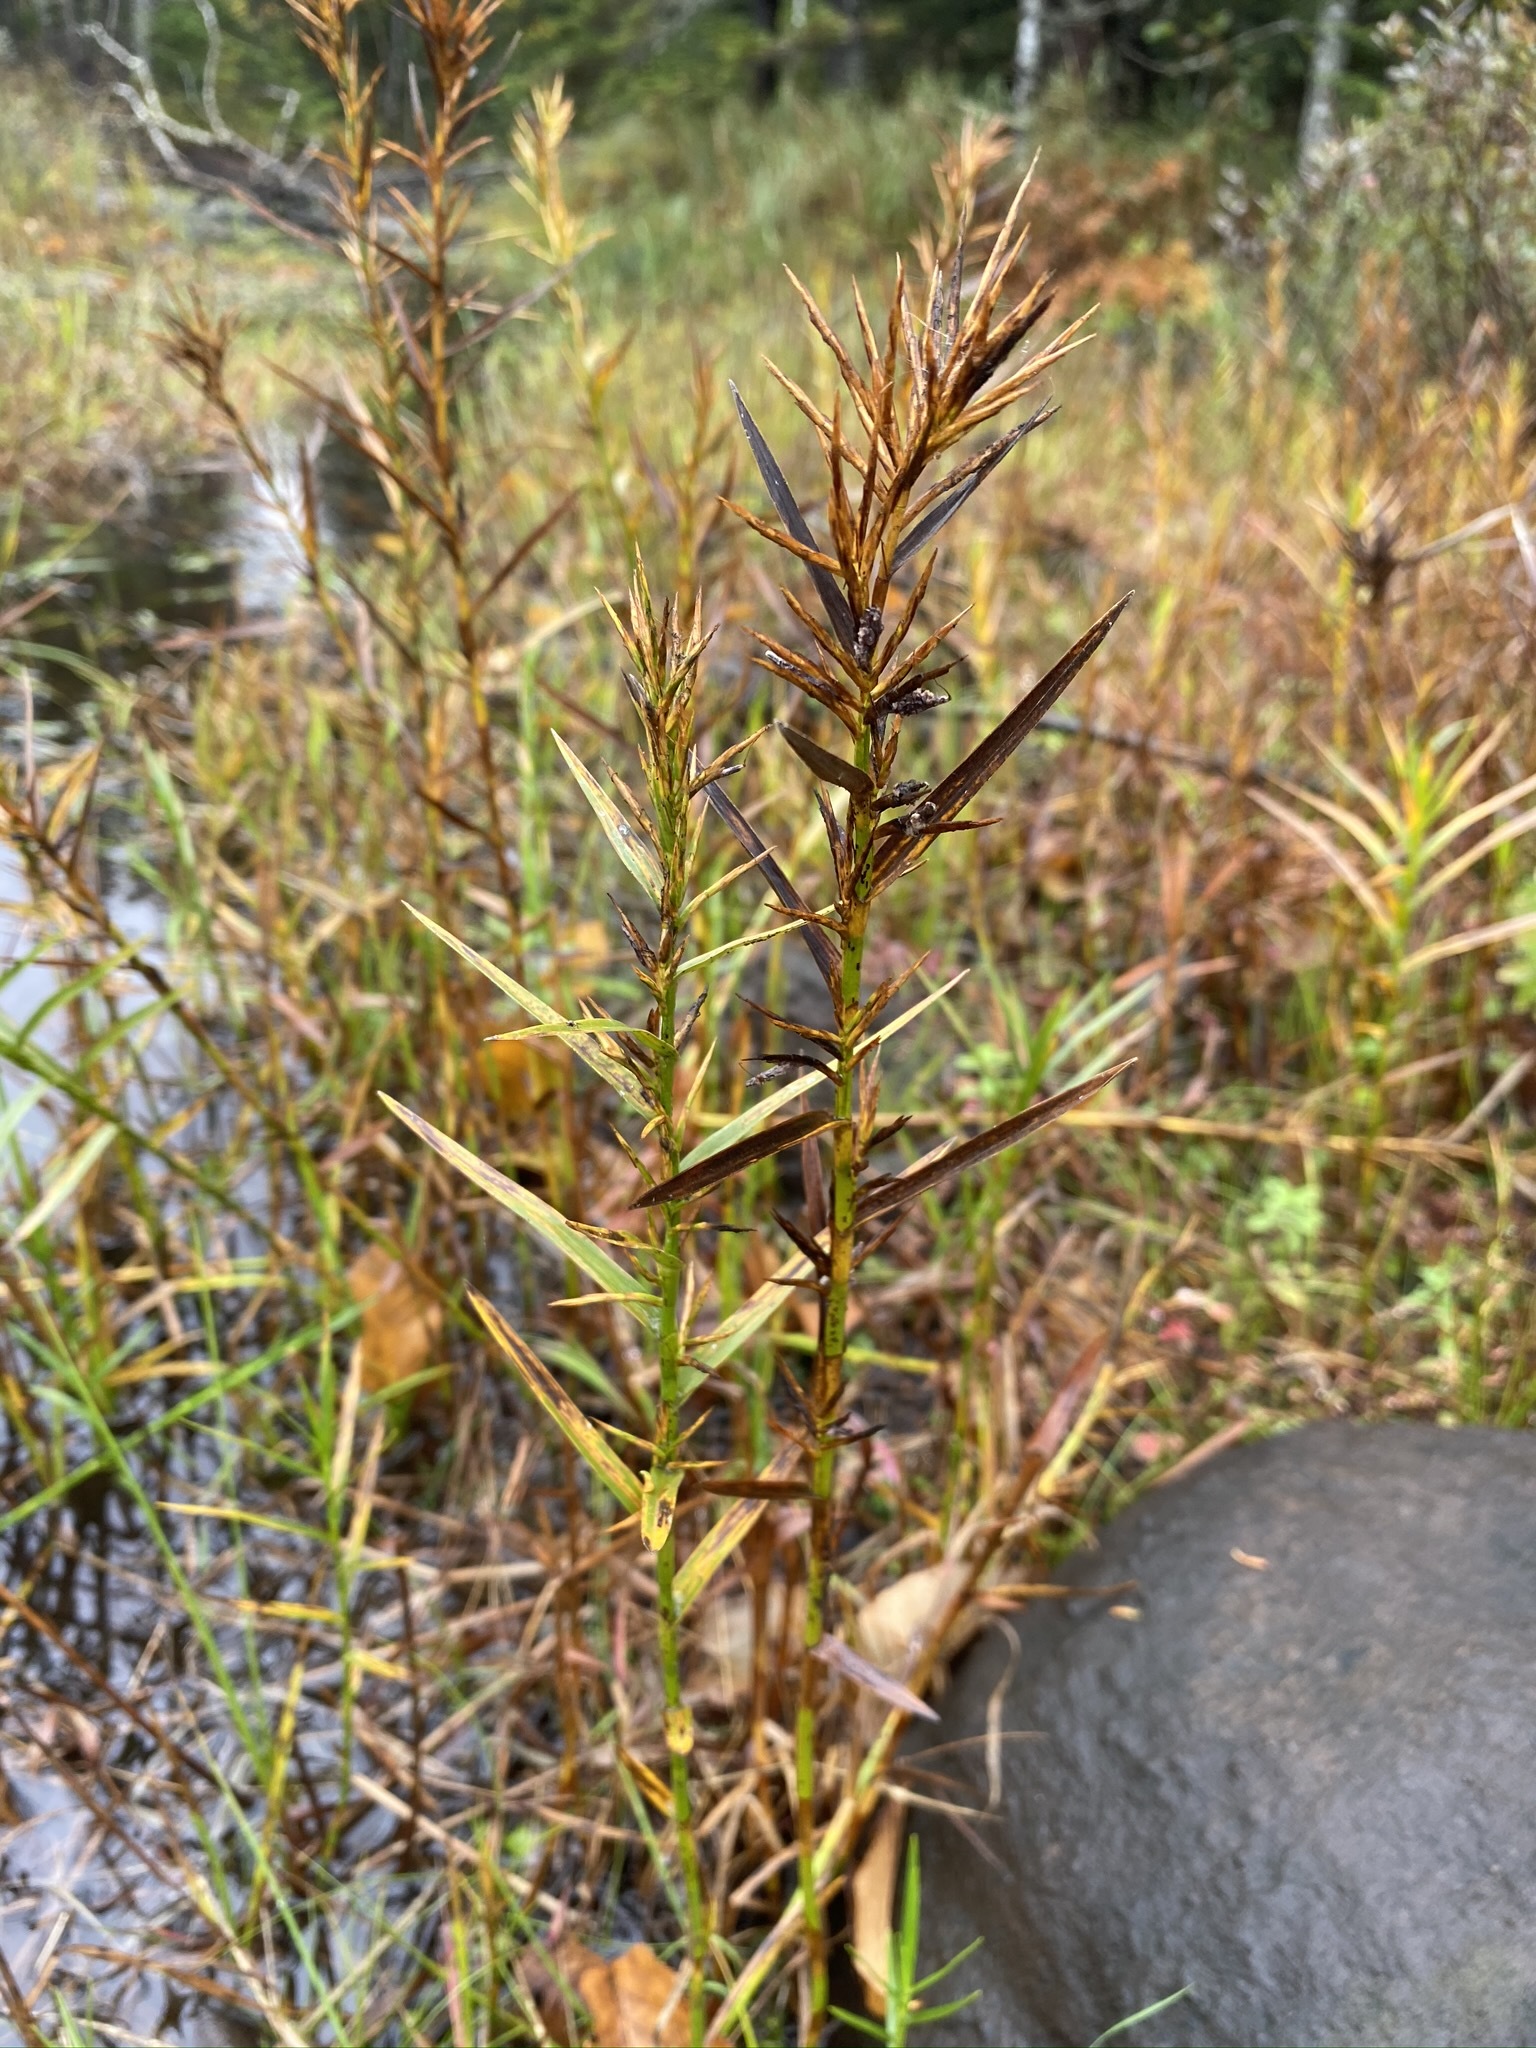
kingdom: Plantae
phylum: Tracheophyta
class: Liliopsida
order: Poales
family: Cyperaceae
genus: Dulichium
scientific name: Dulichium arundinaceum
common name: Three-way sedge
